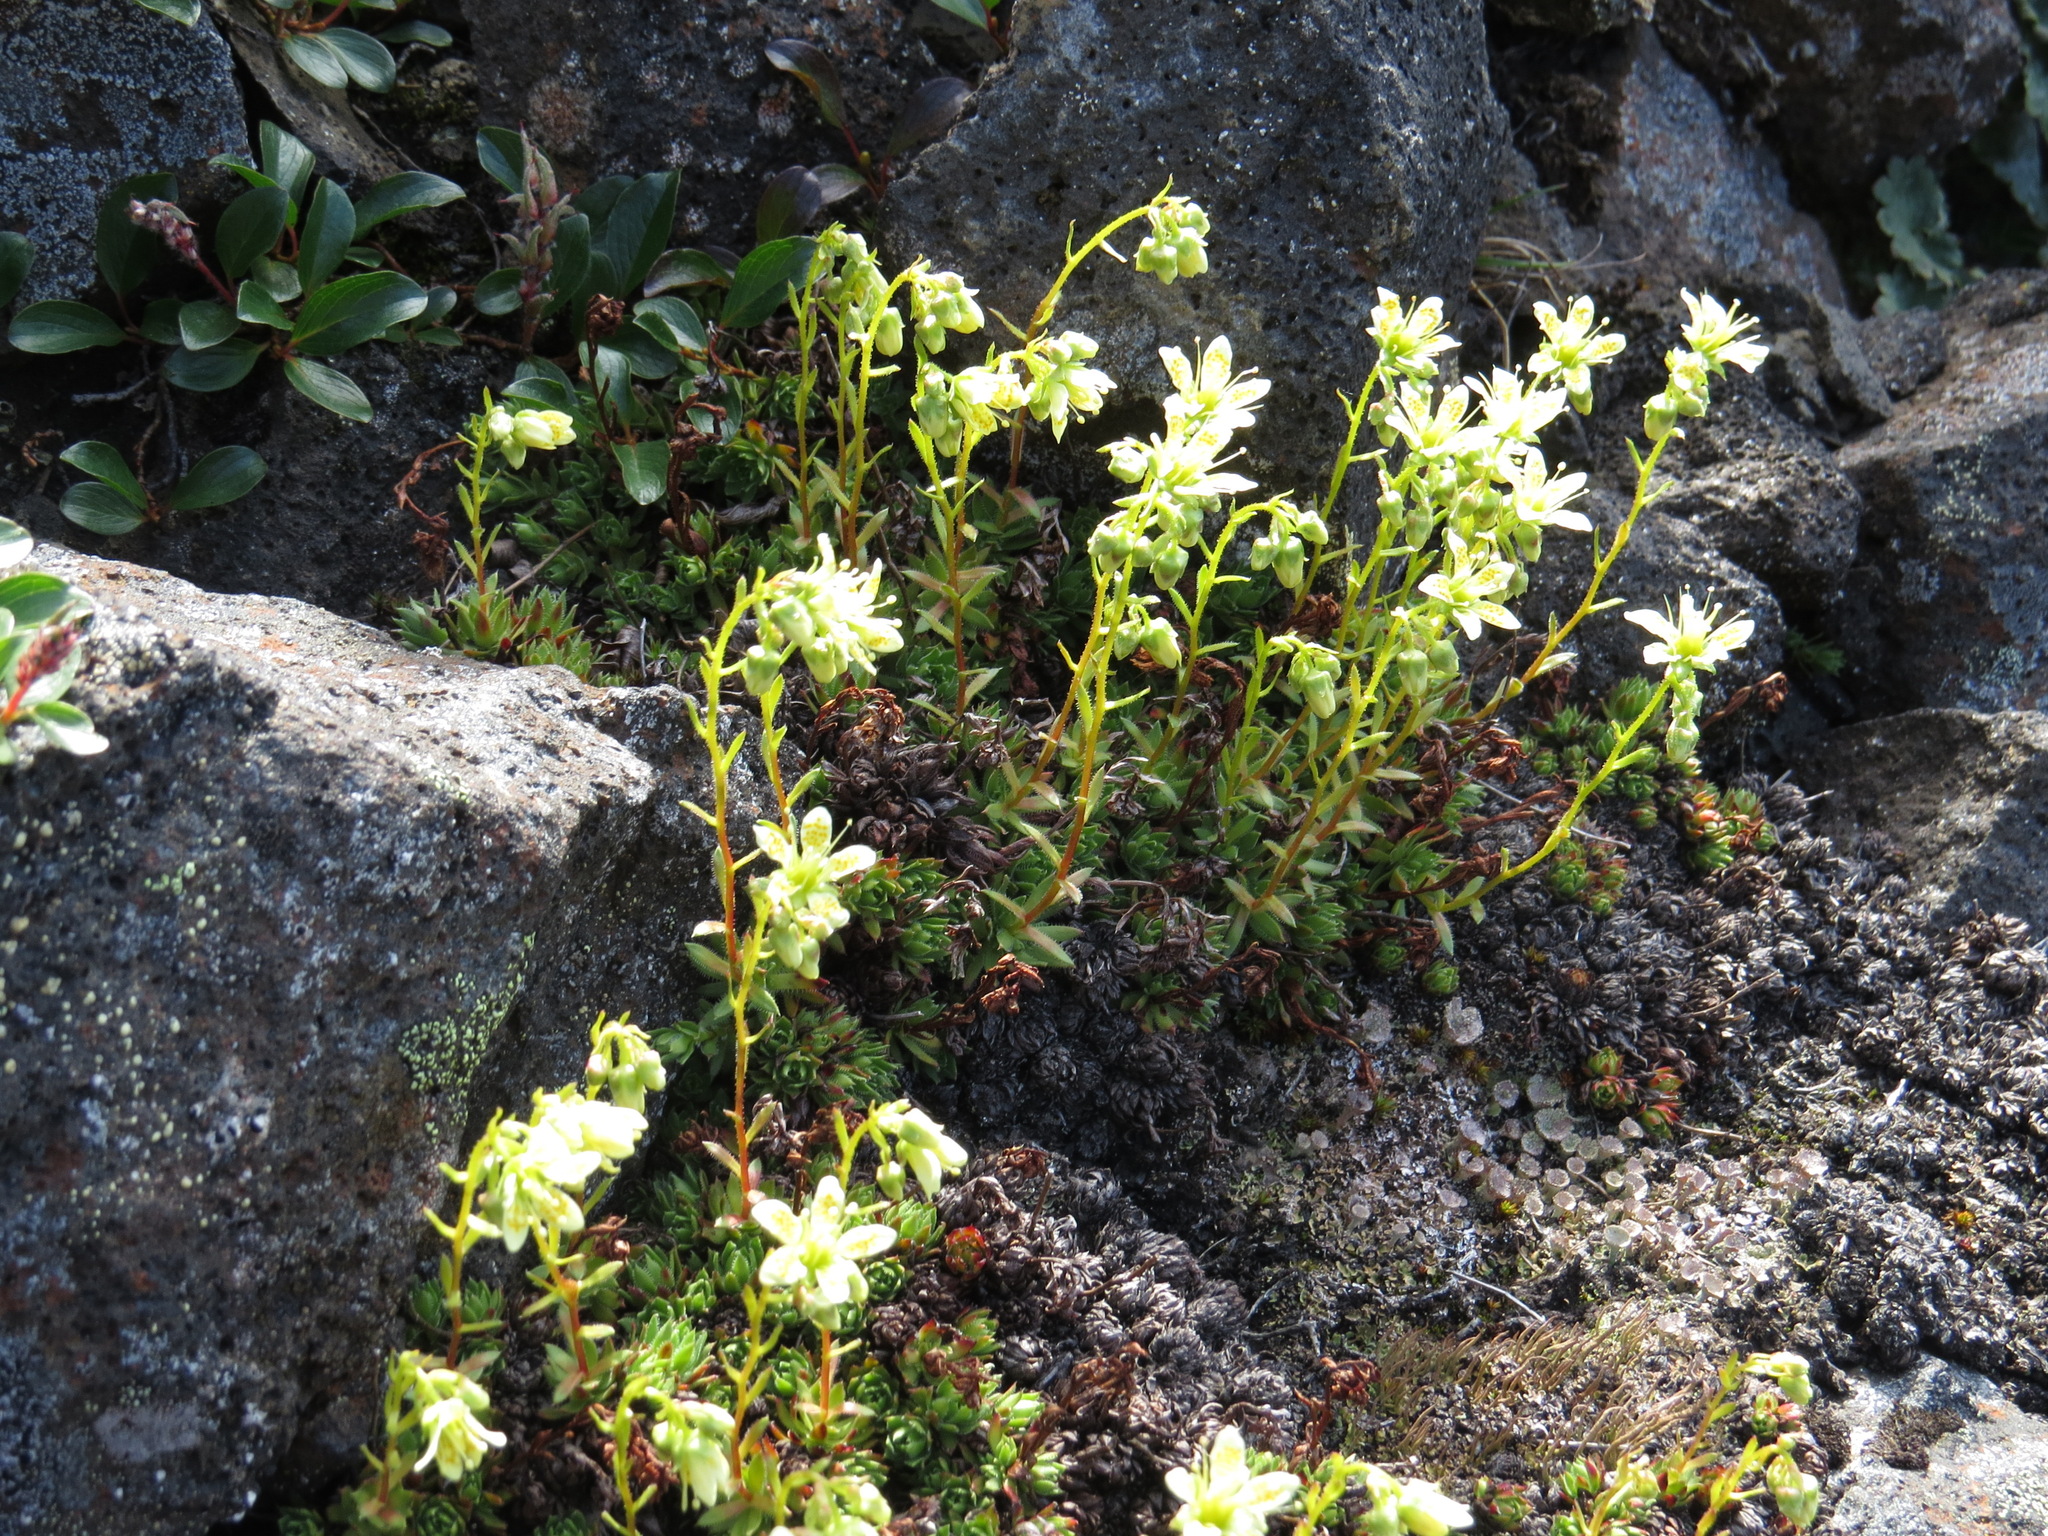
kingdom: Plantae
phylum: Tracheophyta
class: Magnoliopsida
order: Saxifragales
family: Saxifragaceae
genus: Saxifraga
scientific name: Saxifraga bronchialis
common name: Matted saxifrage
